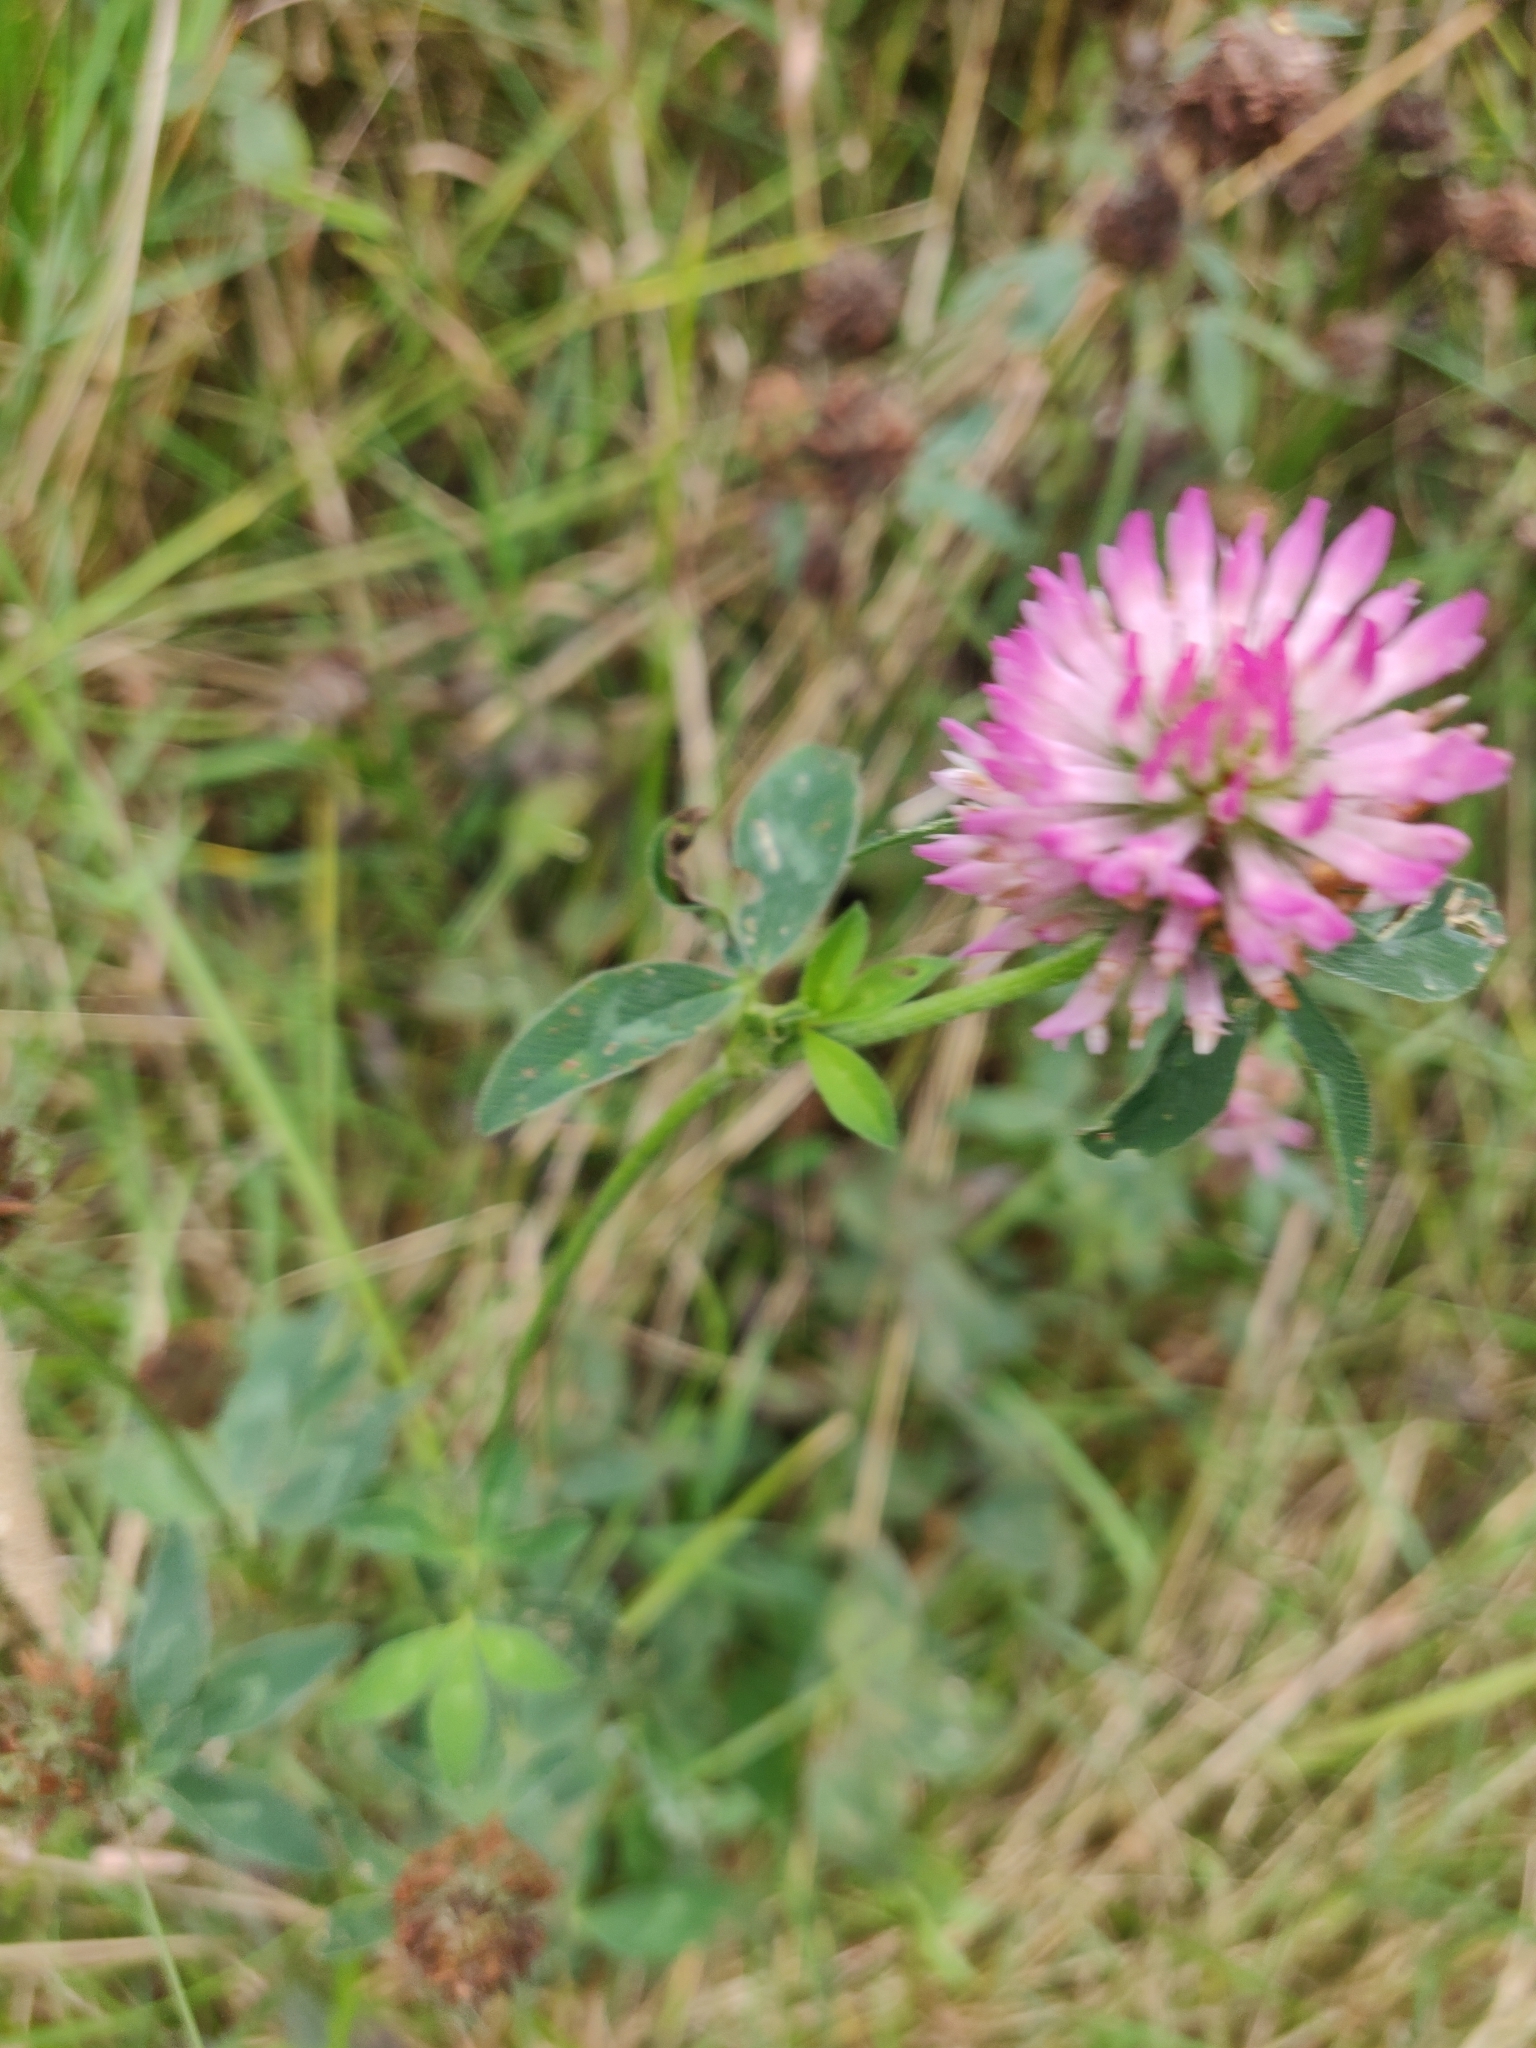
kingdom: Plantae
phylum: Tracheophyta
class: Magnoliopsida
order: Fabales
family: Fabaceae
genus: Trifolium
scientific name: Trifolium pratense
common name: Red clover
